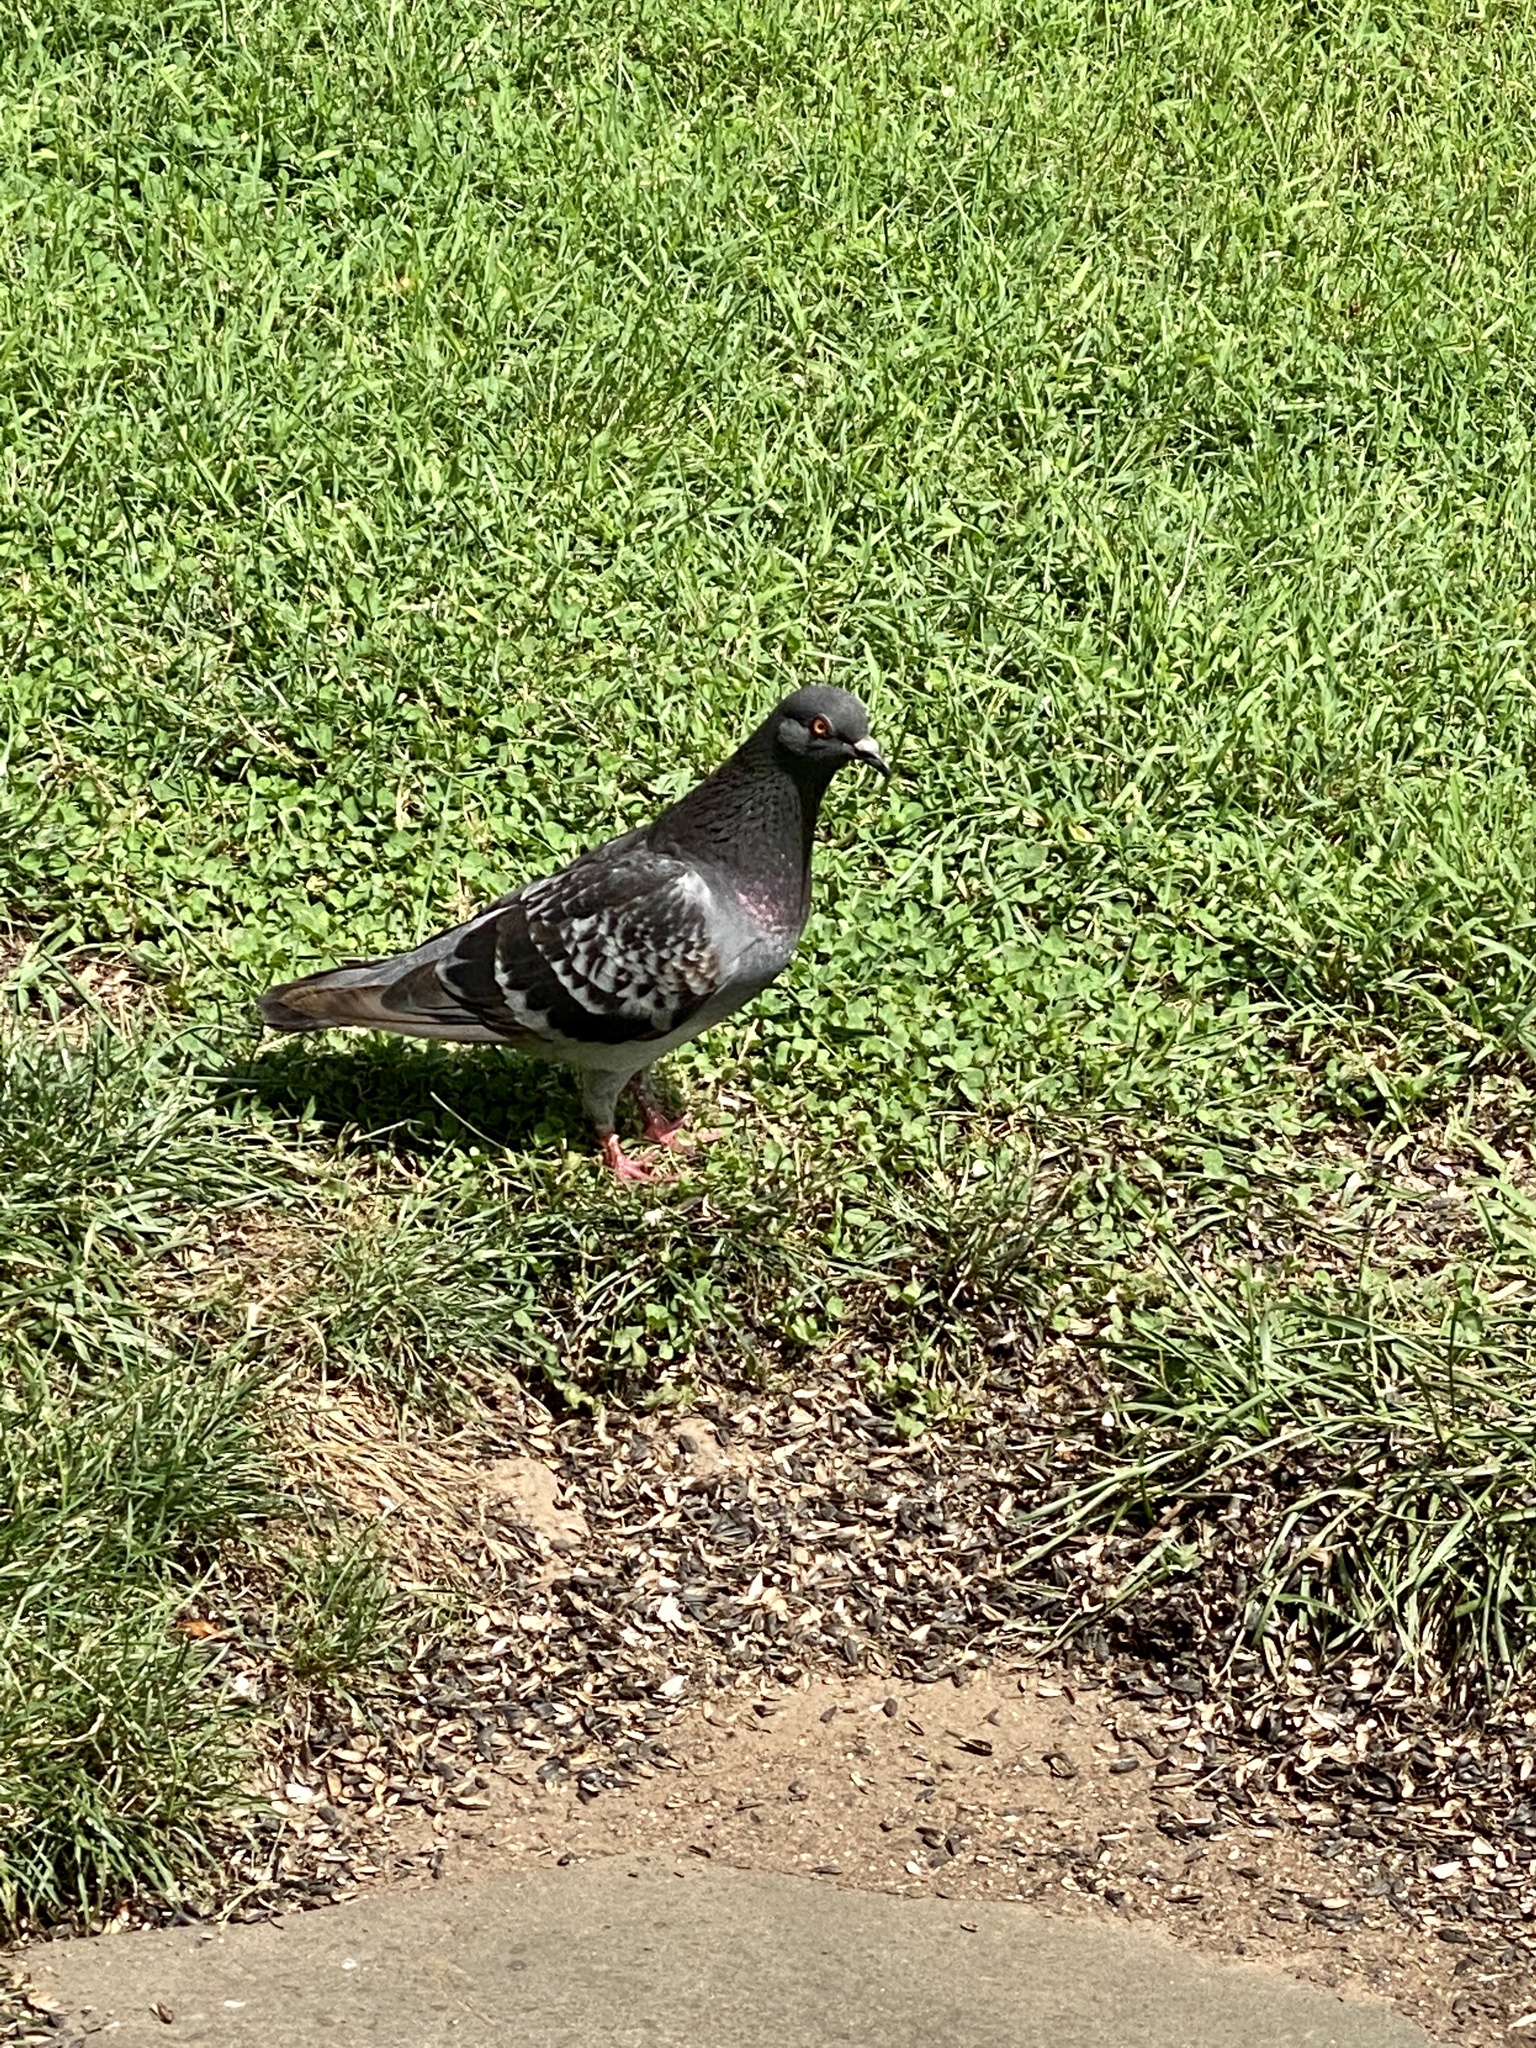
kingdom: Animalia
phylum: Chordata
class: Aves
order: Columbiformes
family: Columbidae
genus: Columba
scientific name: Columba livia
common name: Rock pigeon
